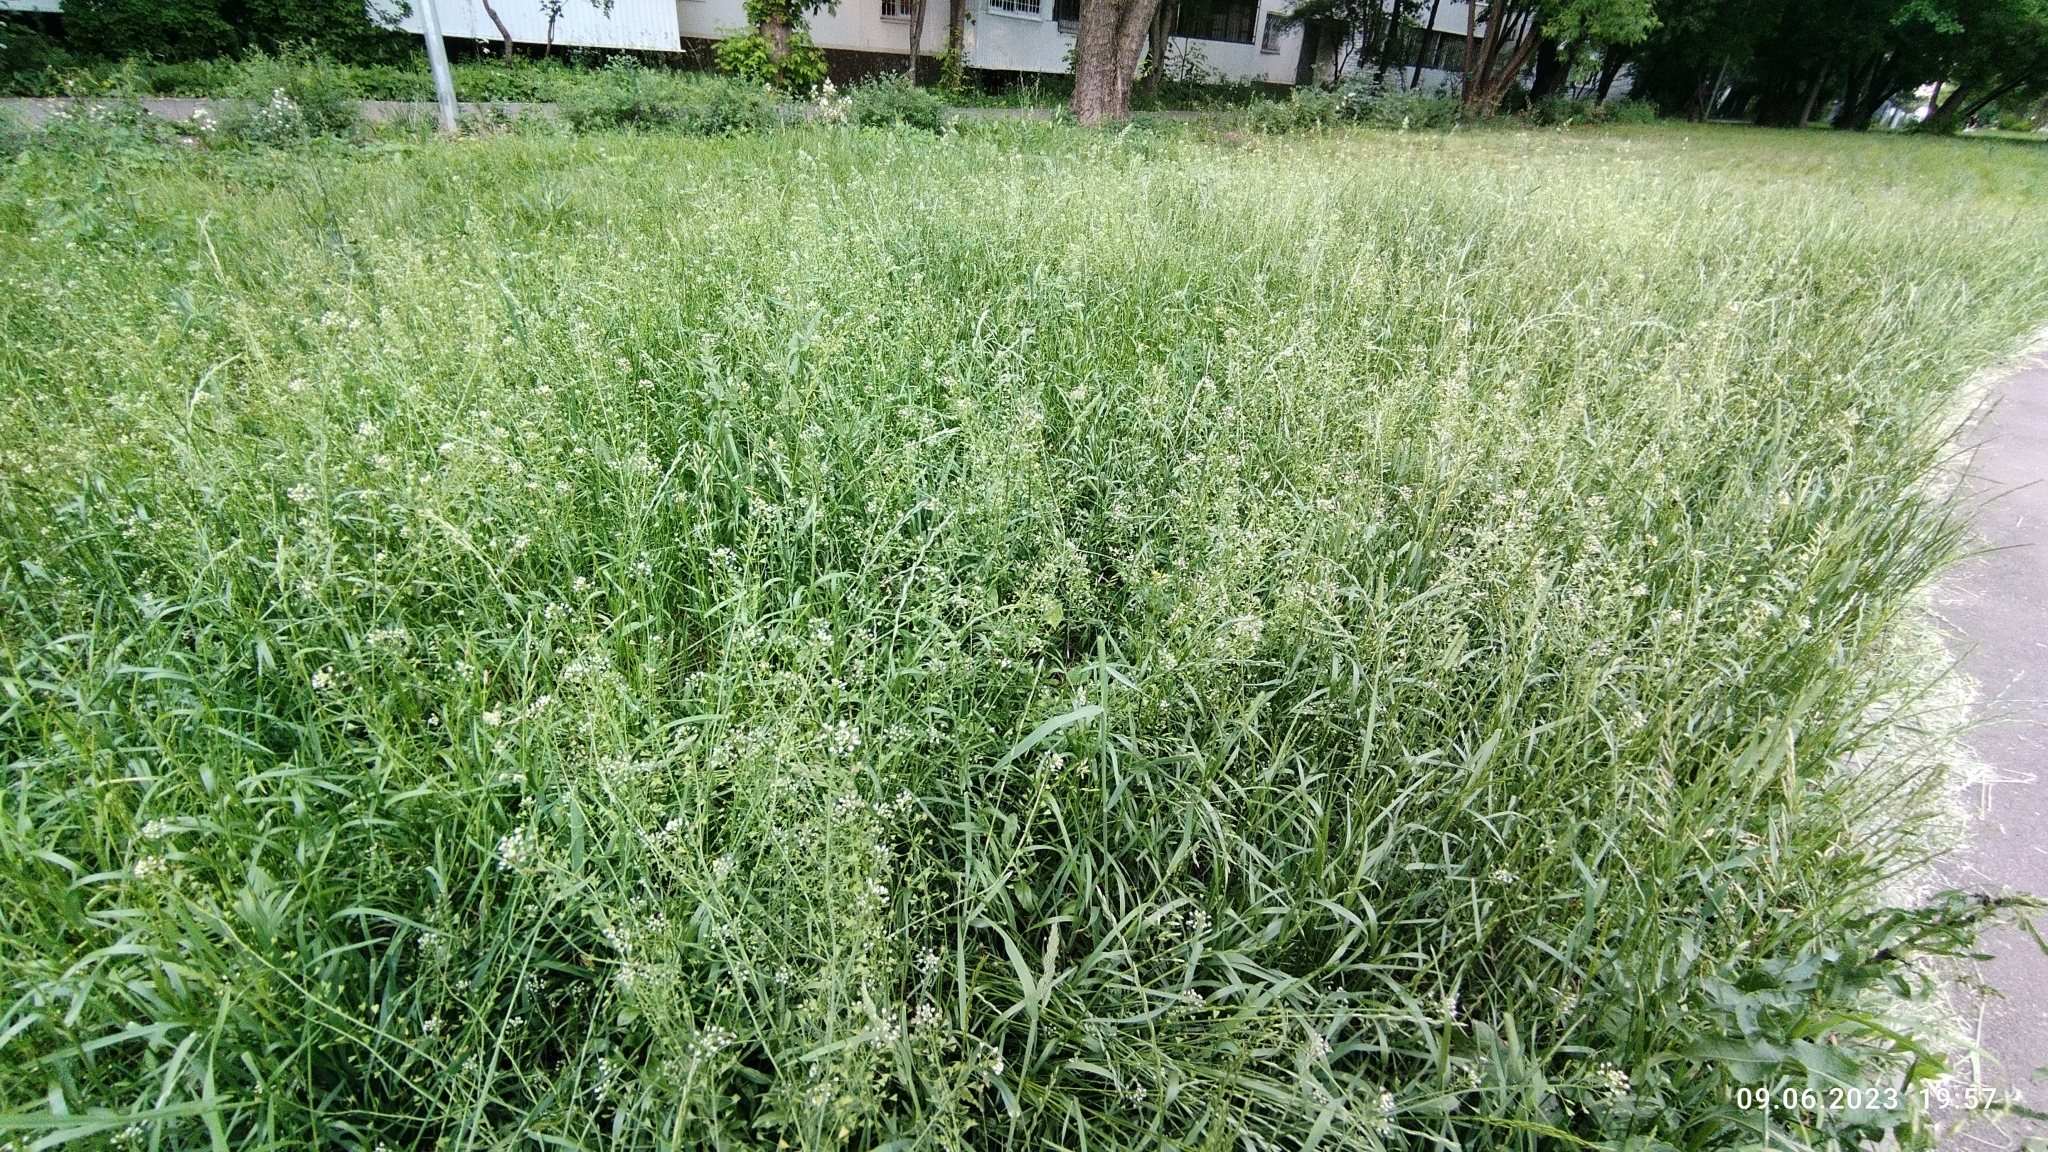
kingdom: Plantae
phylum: Tracheophyta
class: Magnoliopsida
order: Brassicales
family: Brassicaceae
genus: Capsella
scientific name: Capsella bursa-pastoris
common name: Shepherd's purse
